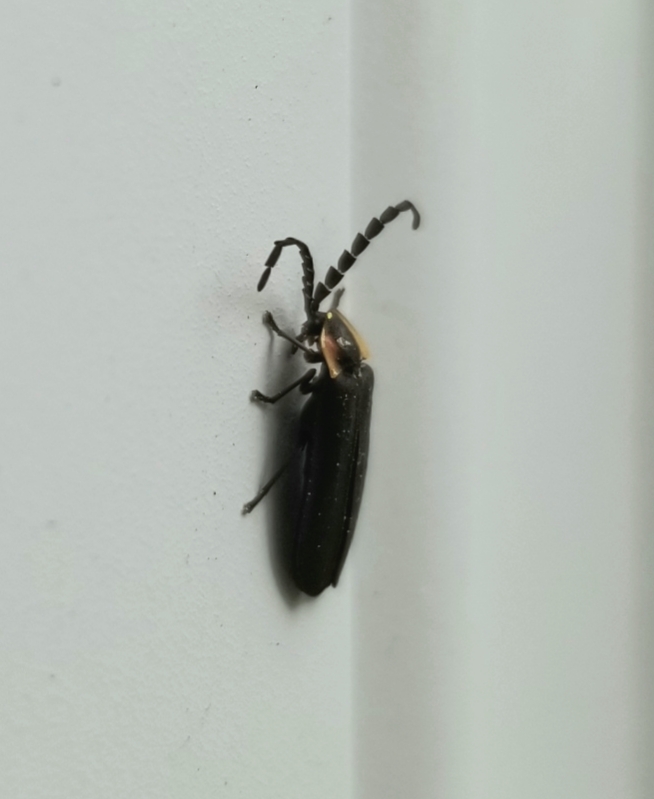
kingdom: Animalia
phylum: Arthropoda
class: Insecta
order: Coleoptera
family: Lampyridae
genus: Lucidota
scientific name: Lucidota atra
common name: Black firefly
